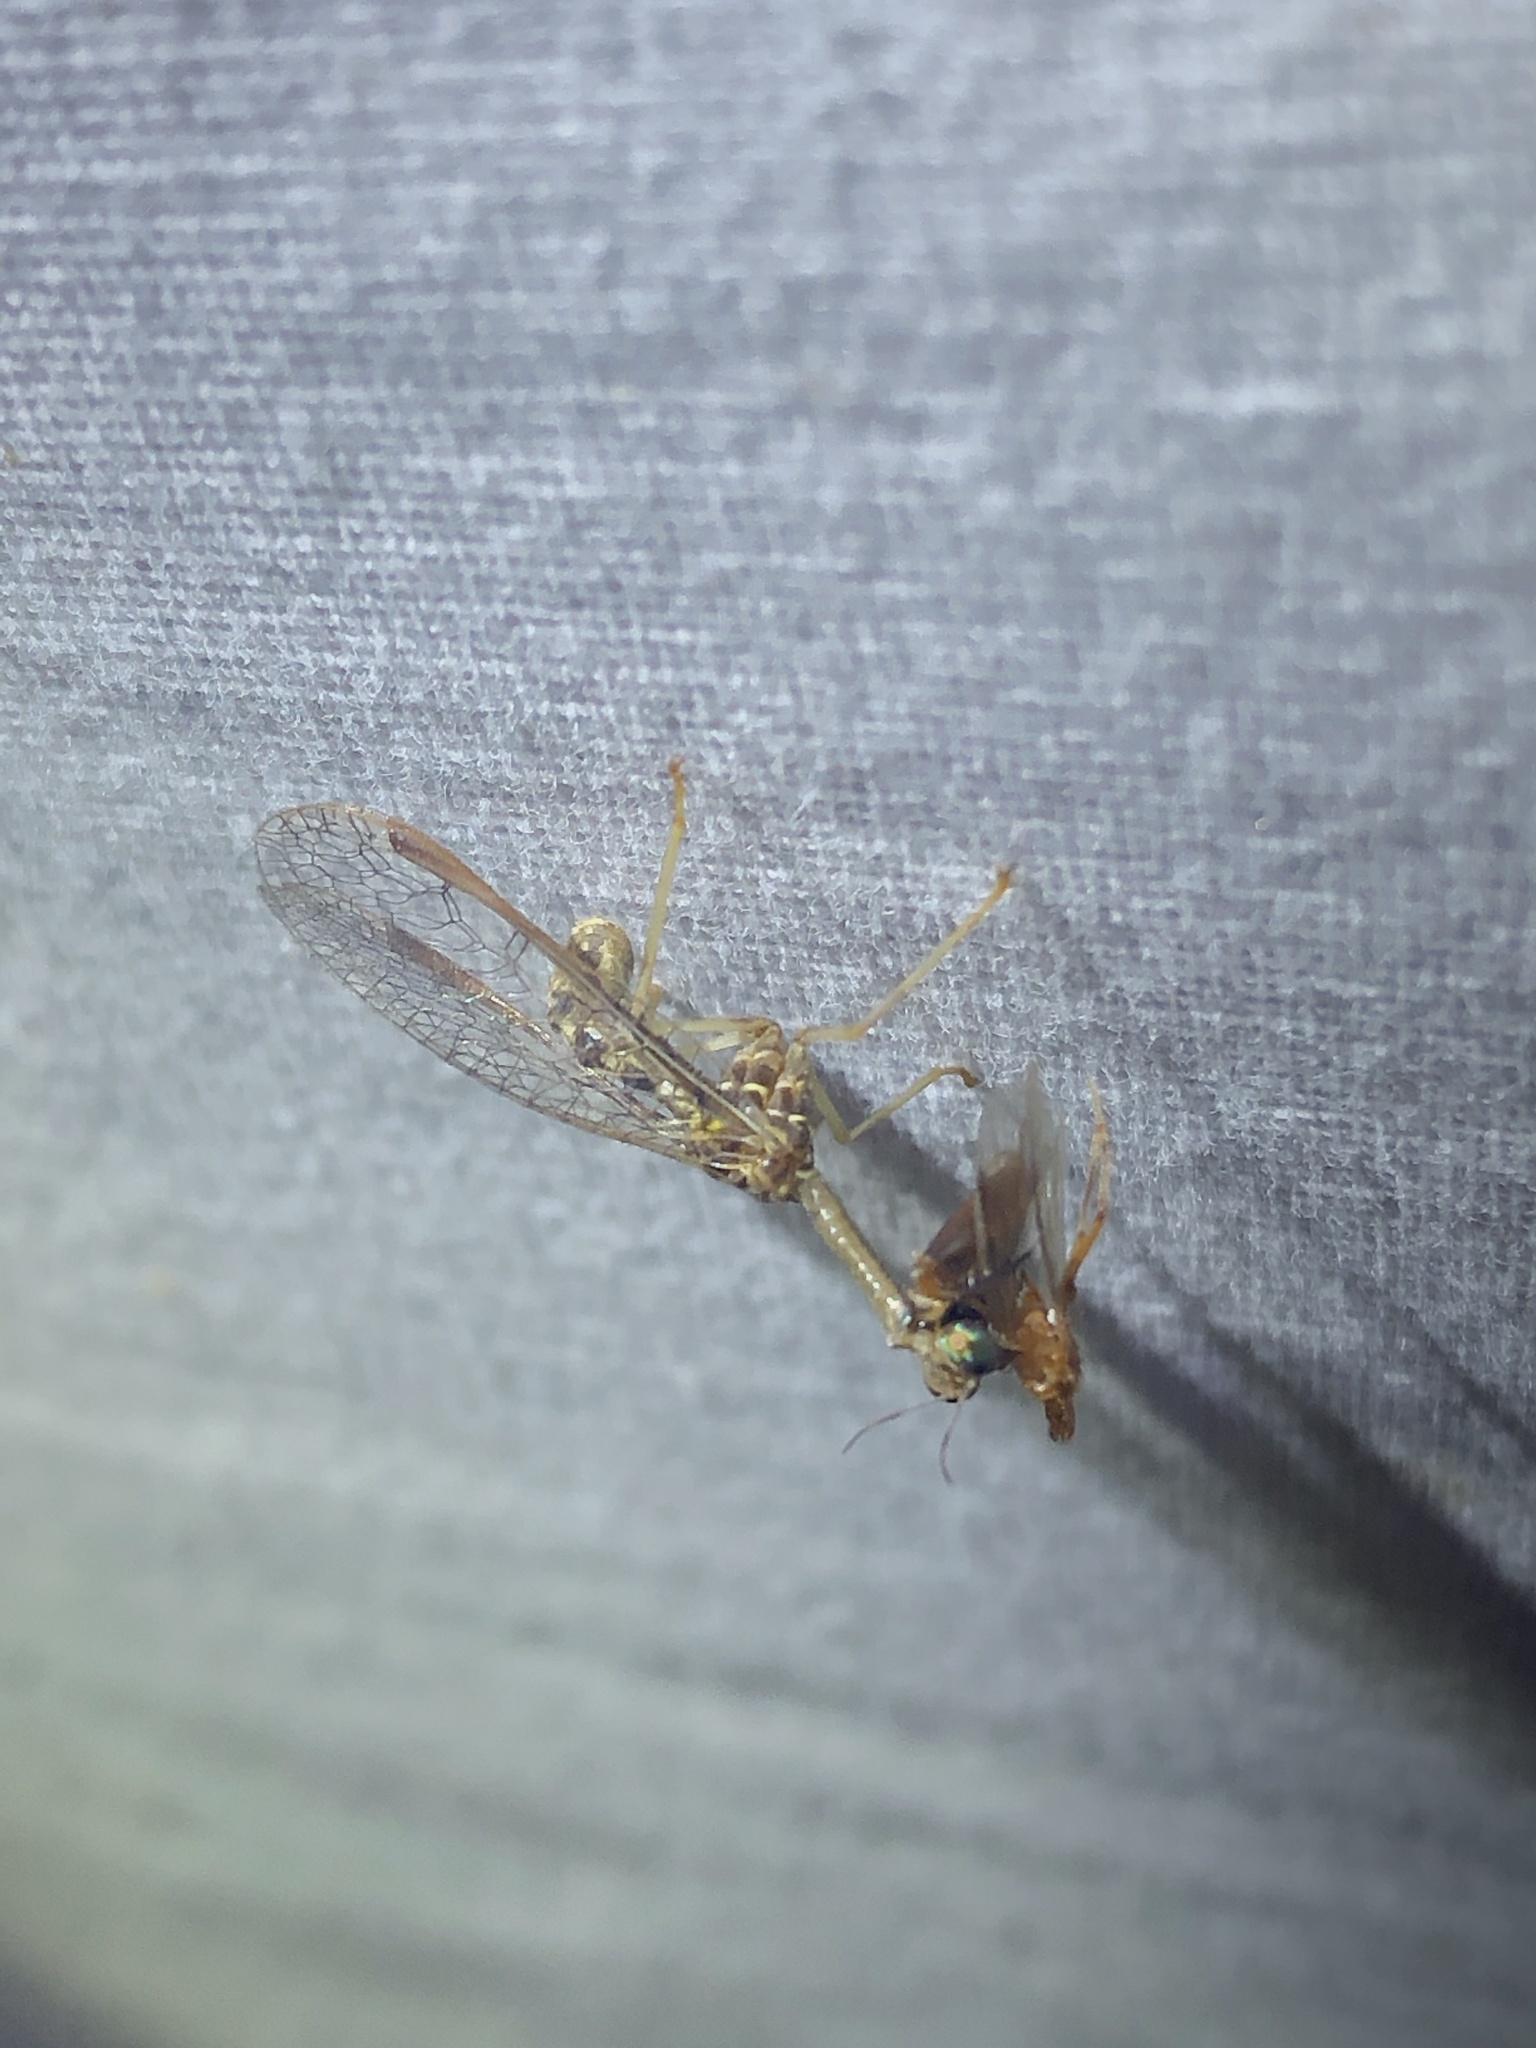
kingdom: Animalia
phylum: Arthropoda
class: Insecta
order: Neuroptera
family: Mantispidae
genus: Dicromantispa
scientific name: Dicromantispa sayi
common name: Say's mantidfly
